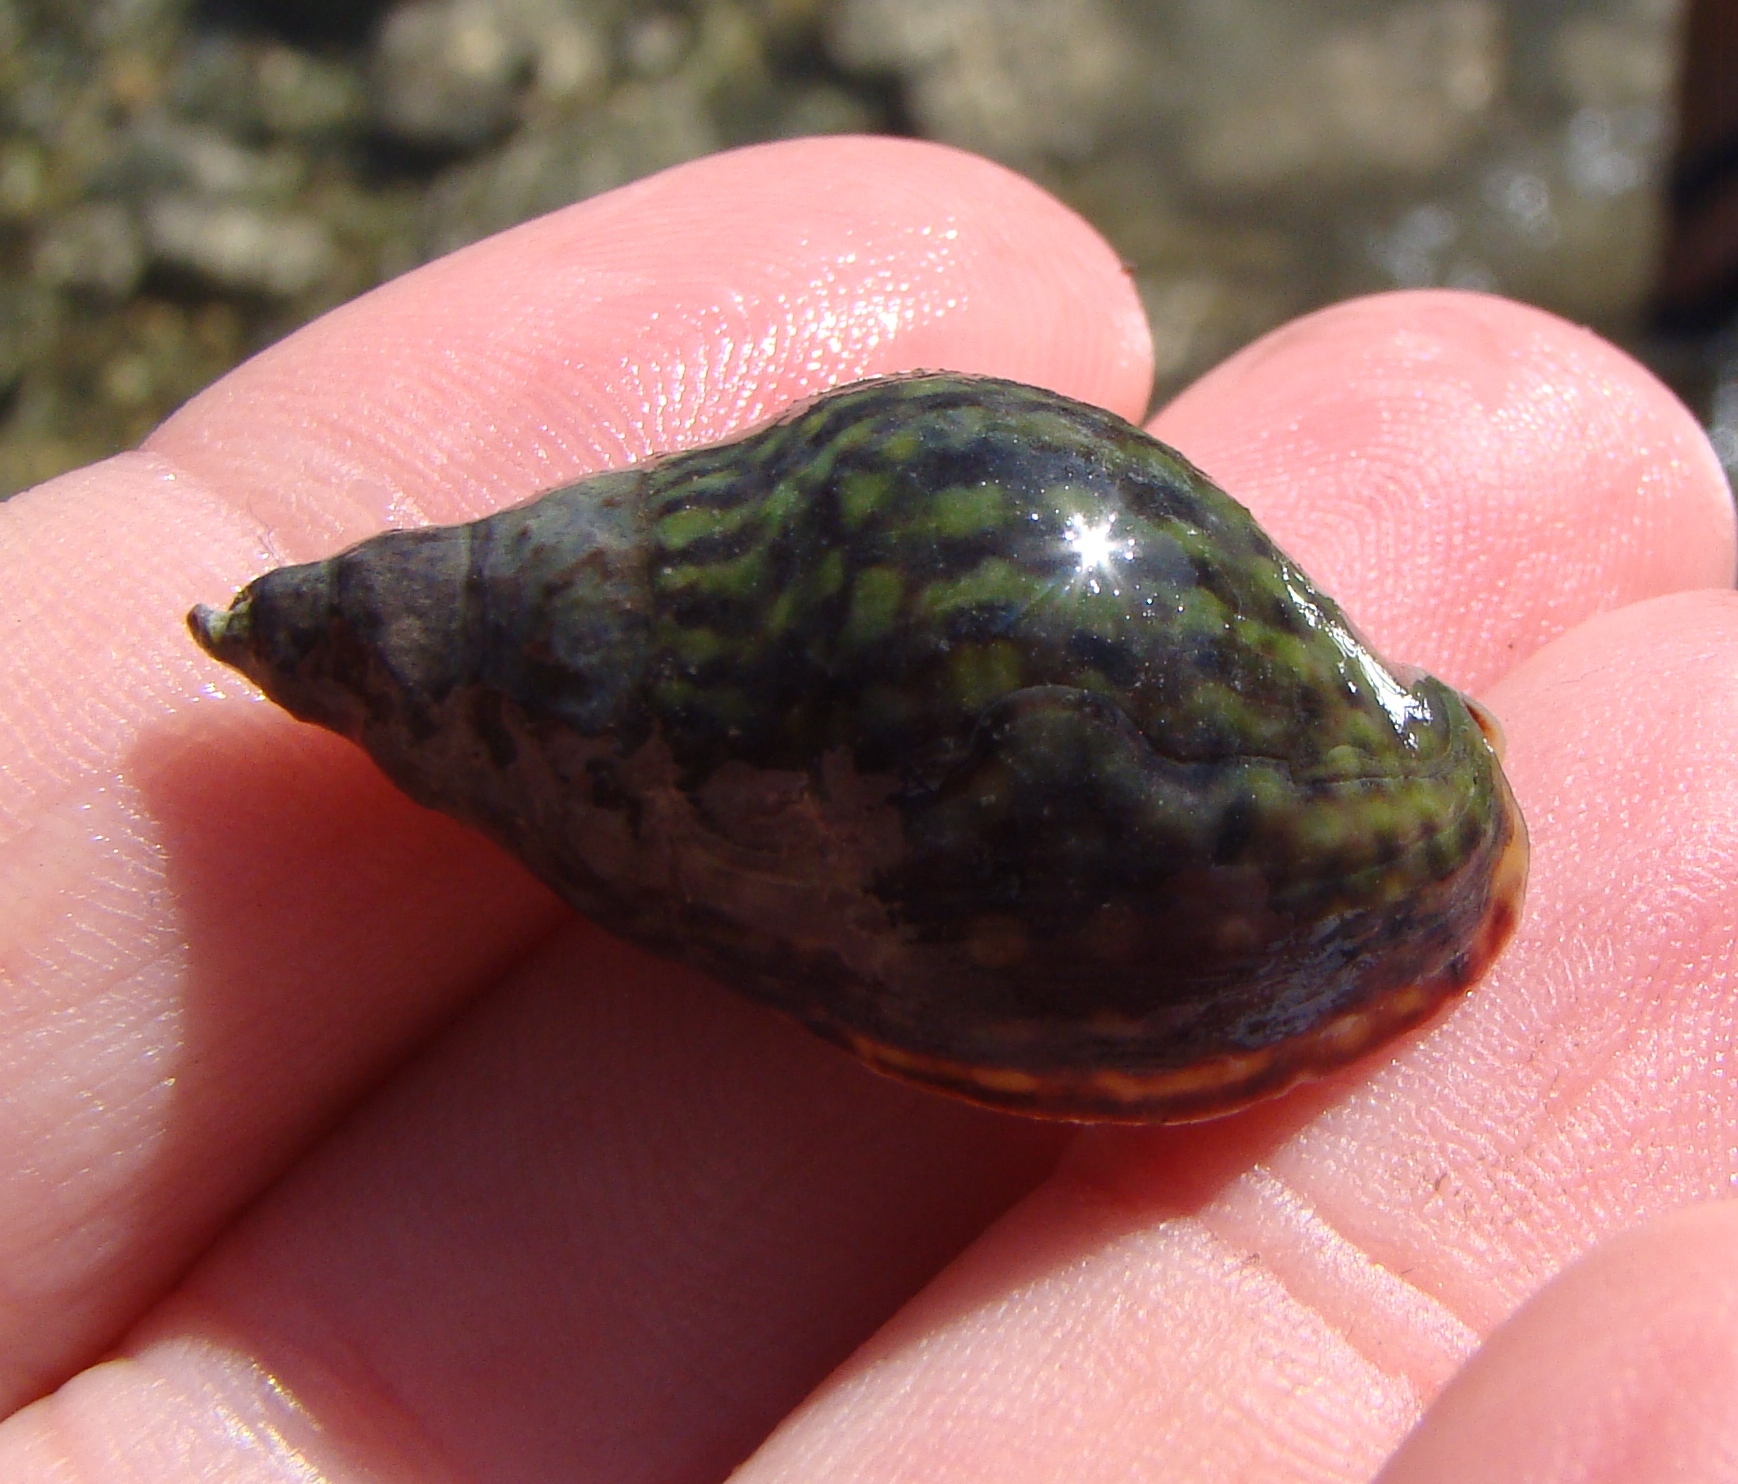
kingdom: Animalia
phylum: Mollusca
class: Gastropoda
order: Neogastropoda
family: Cominellidae
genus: Cominella
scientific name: Cominella maculosa
